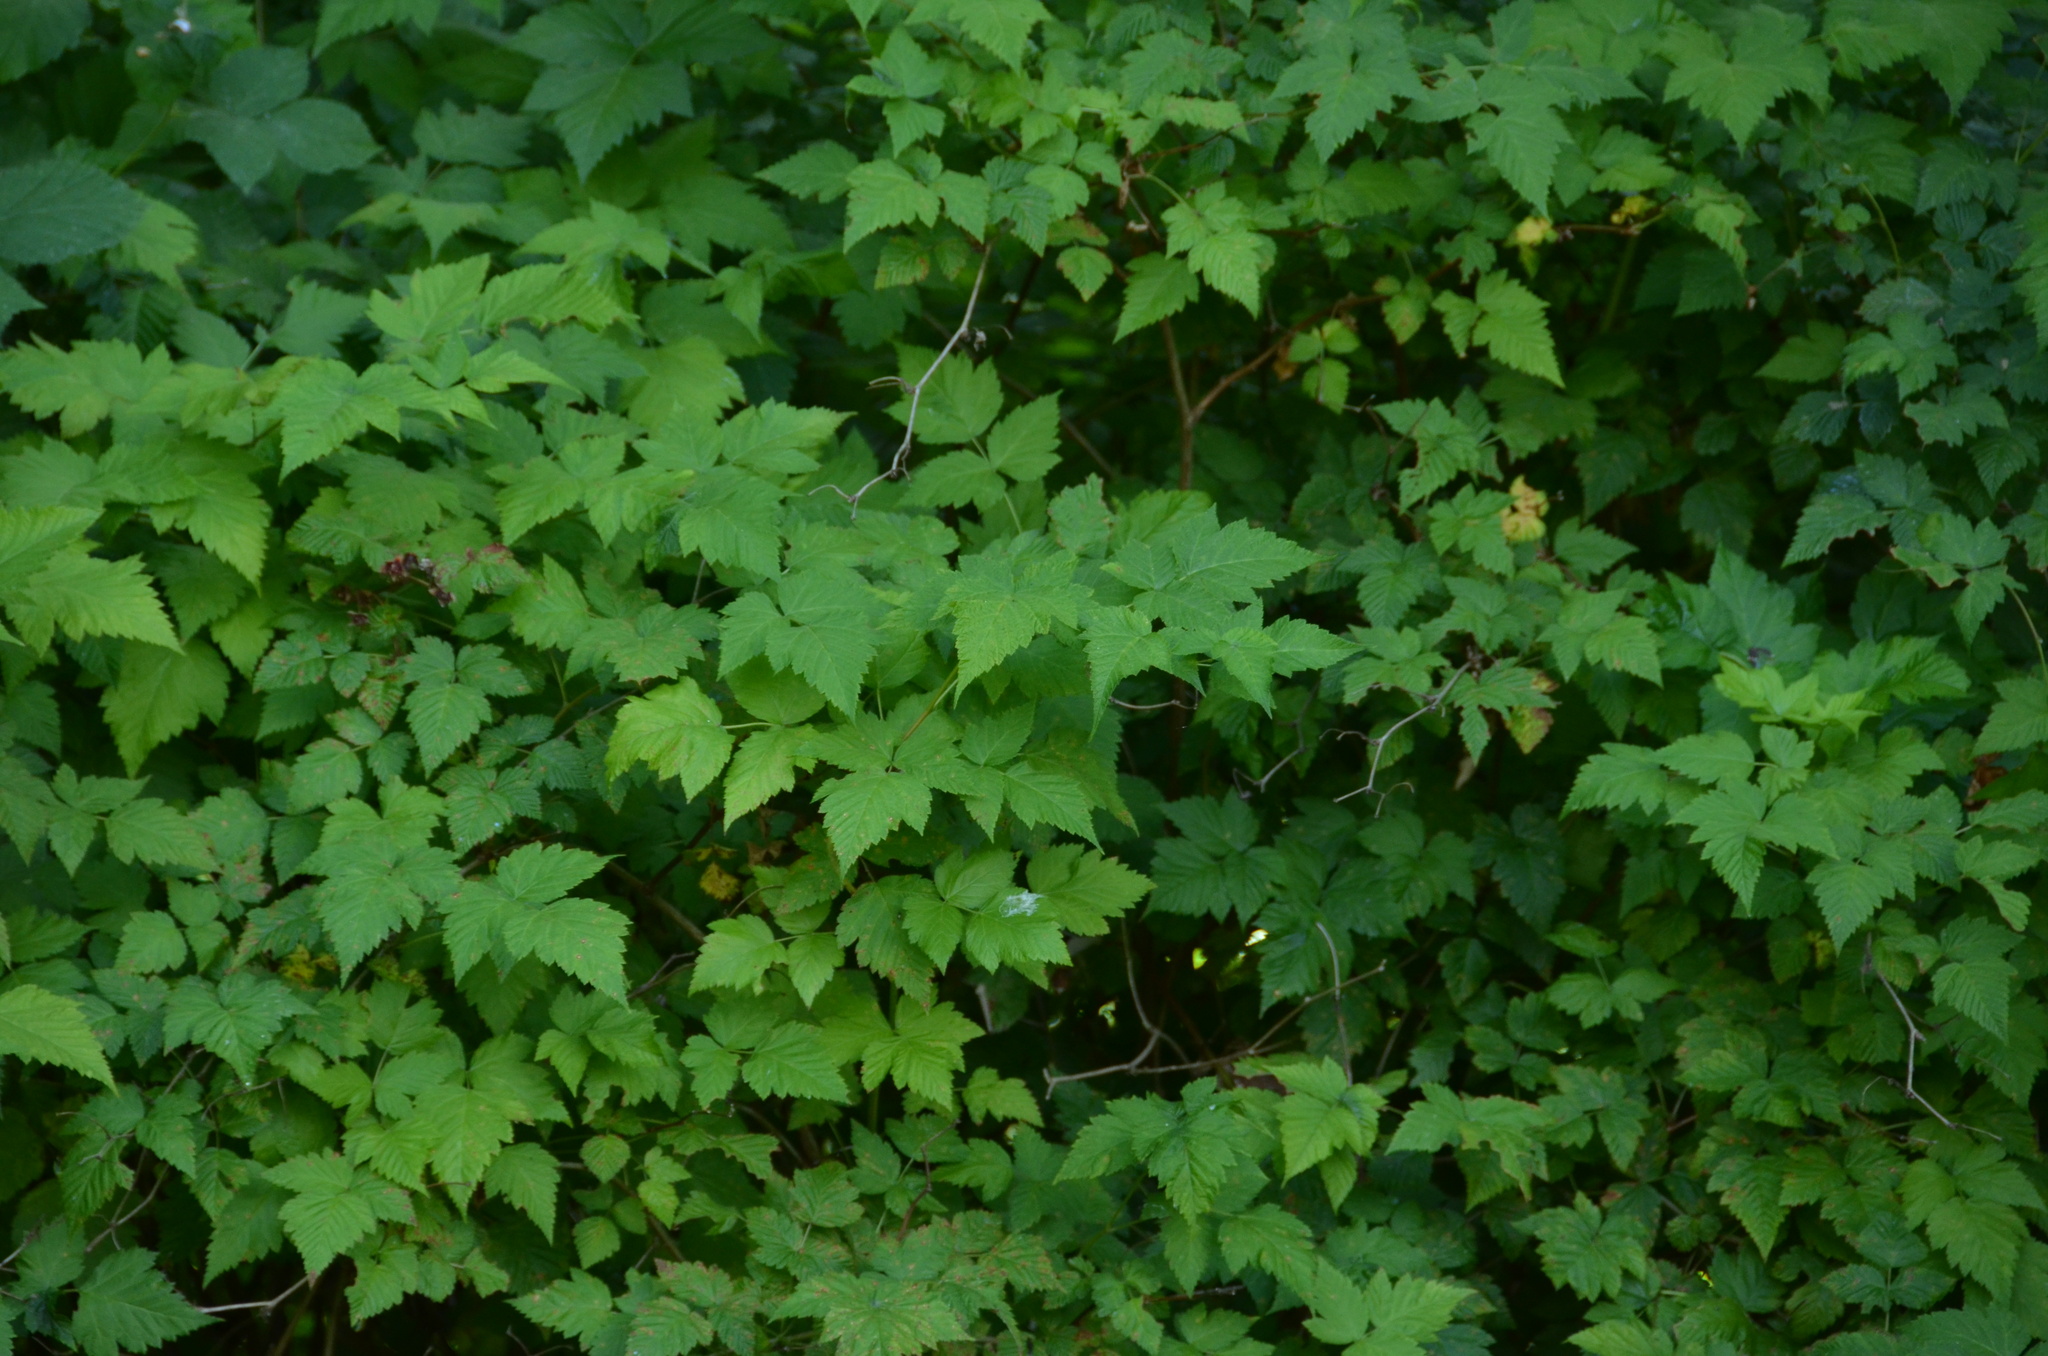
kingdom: Plantae
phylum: Tracheophyta
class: Magnoliopsida
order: Rosales
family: Rosaceae
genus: Rubus
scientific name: Rubus spectabilis
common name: Salmonberry
